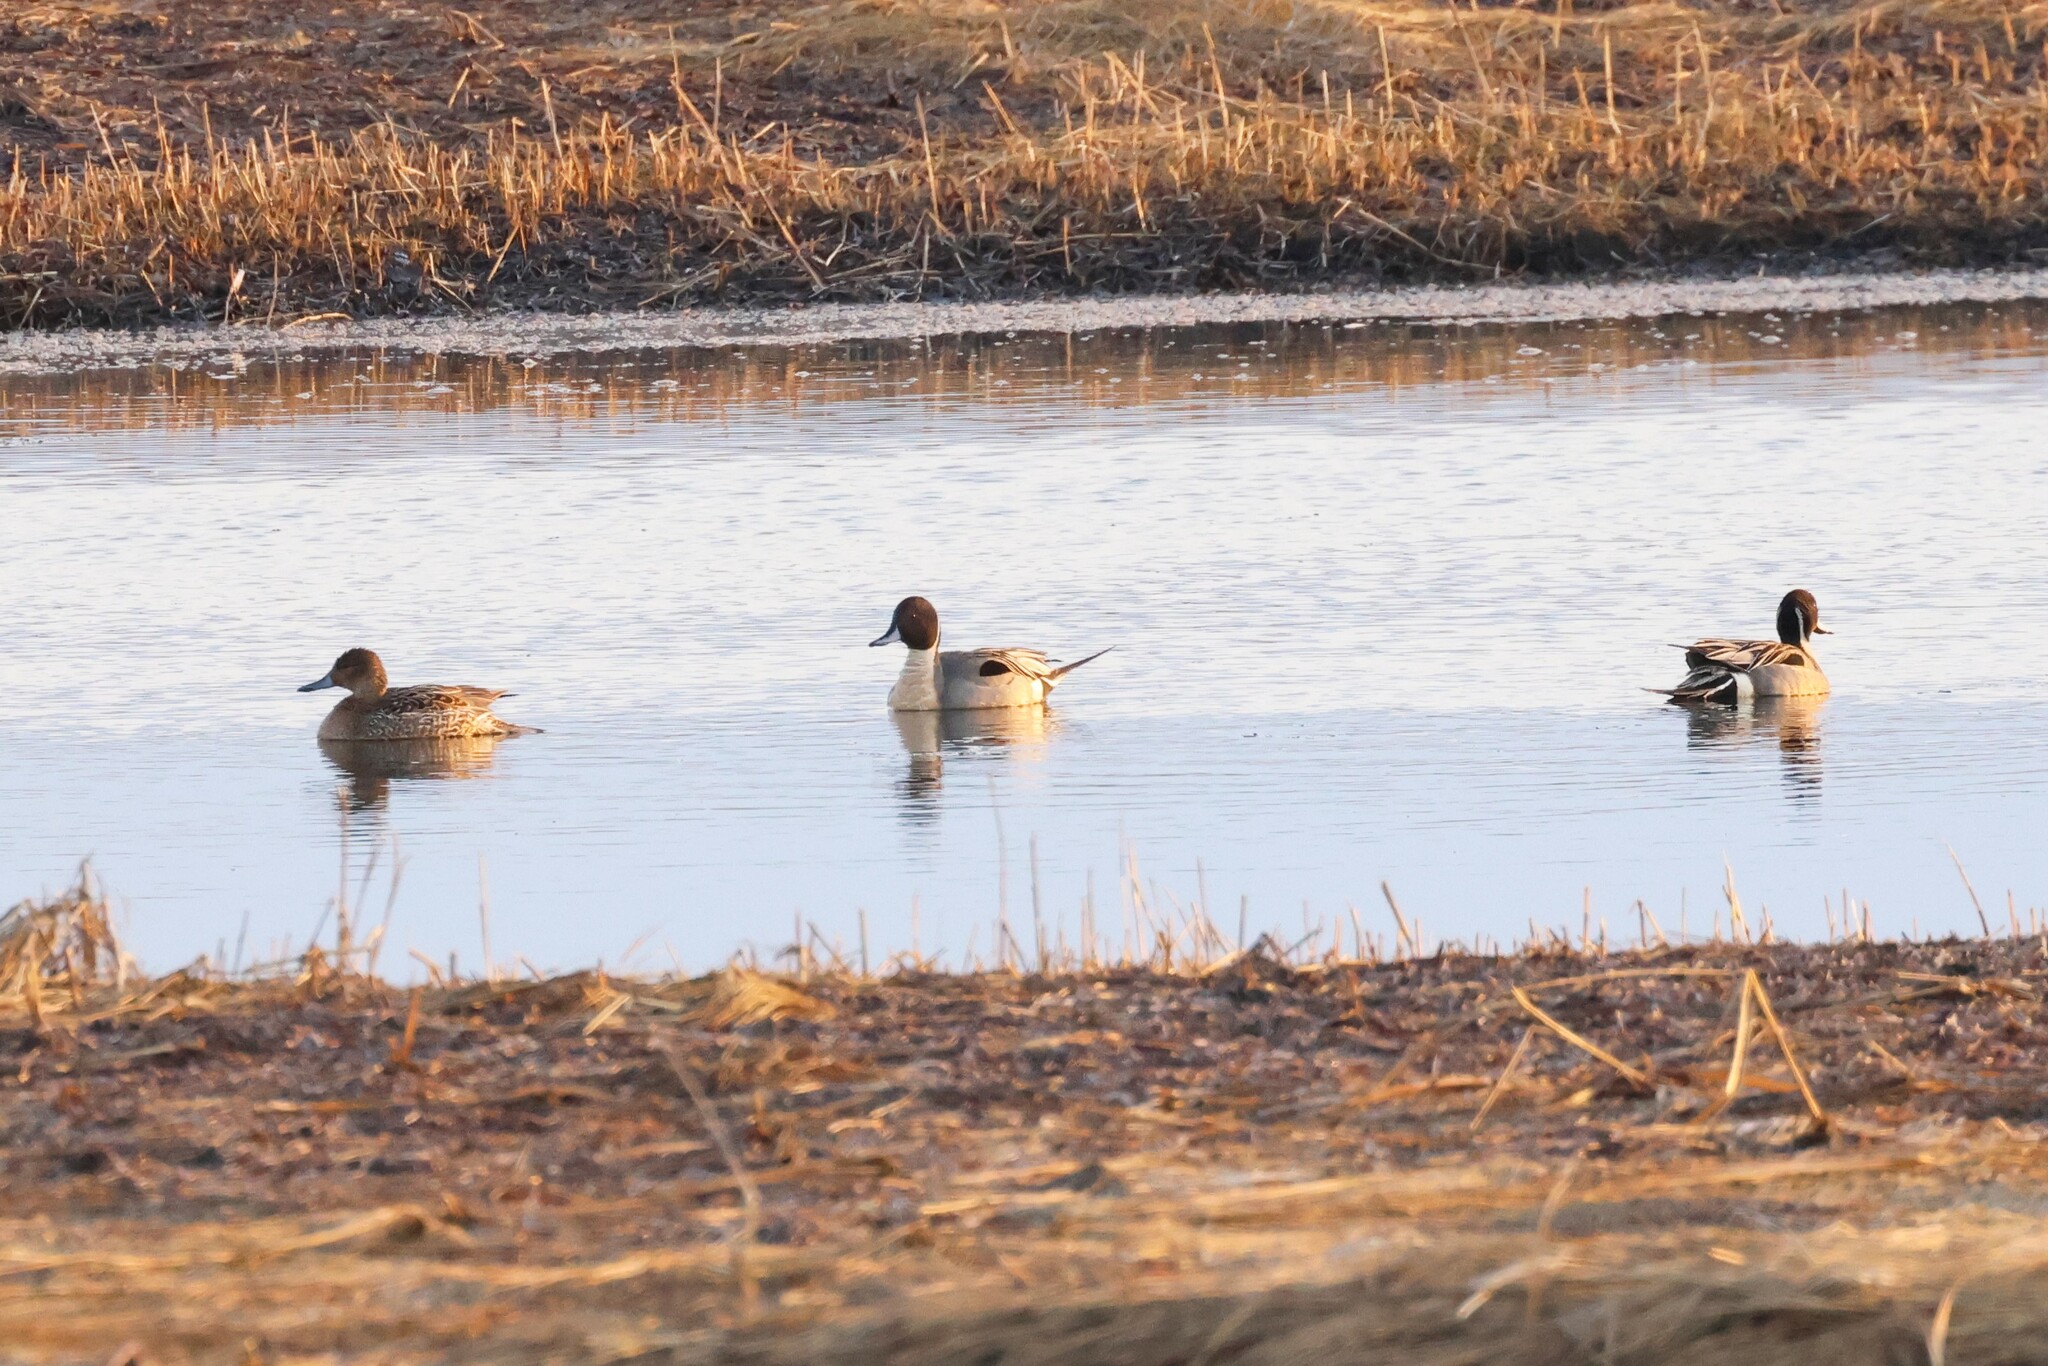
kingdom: Animalia
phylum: Chordata
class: Aves
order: Anseriformes
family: Anatidae
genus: Anas
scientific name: Anas acuta
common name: Northern pintail
